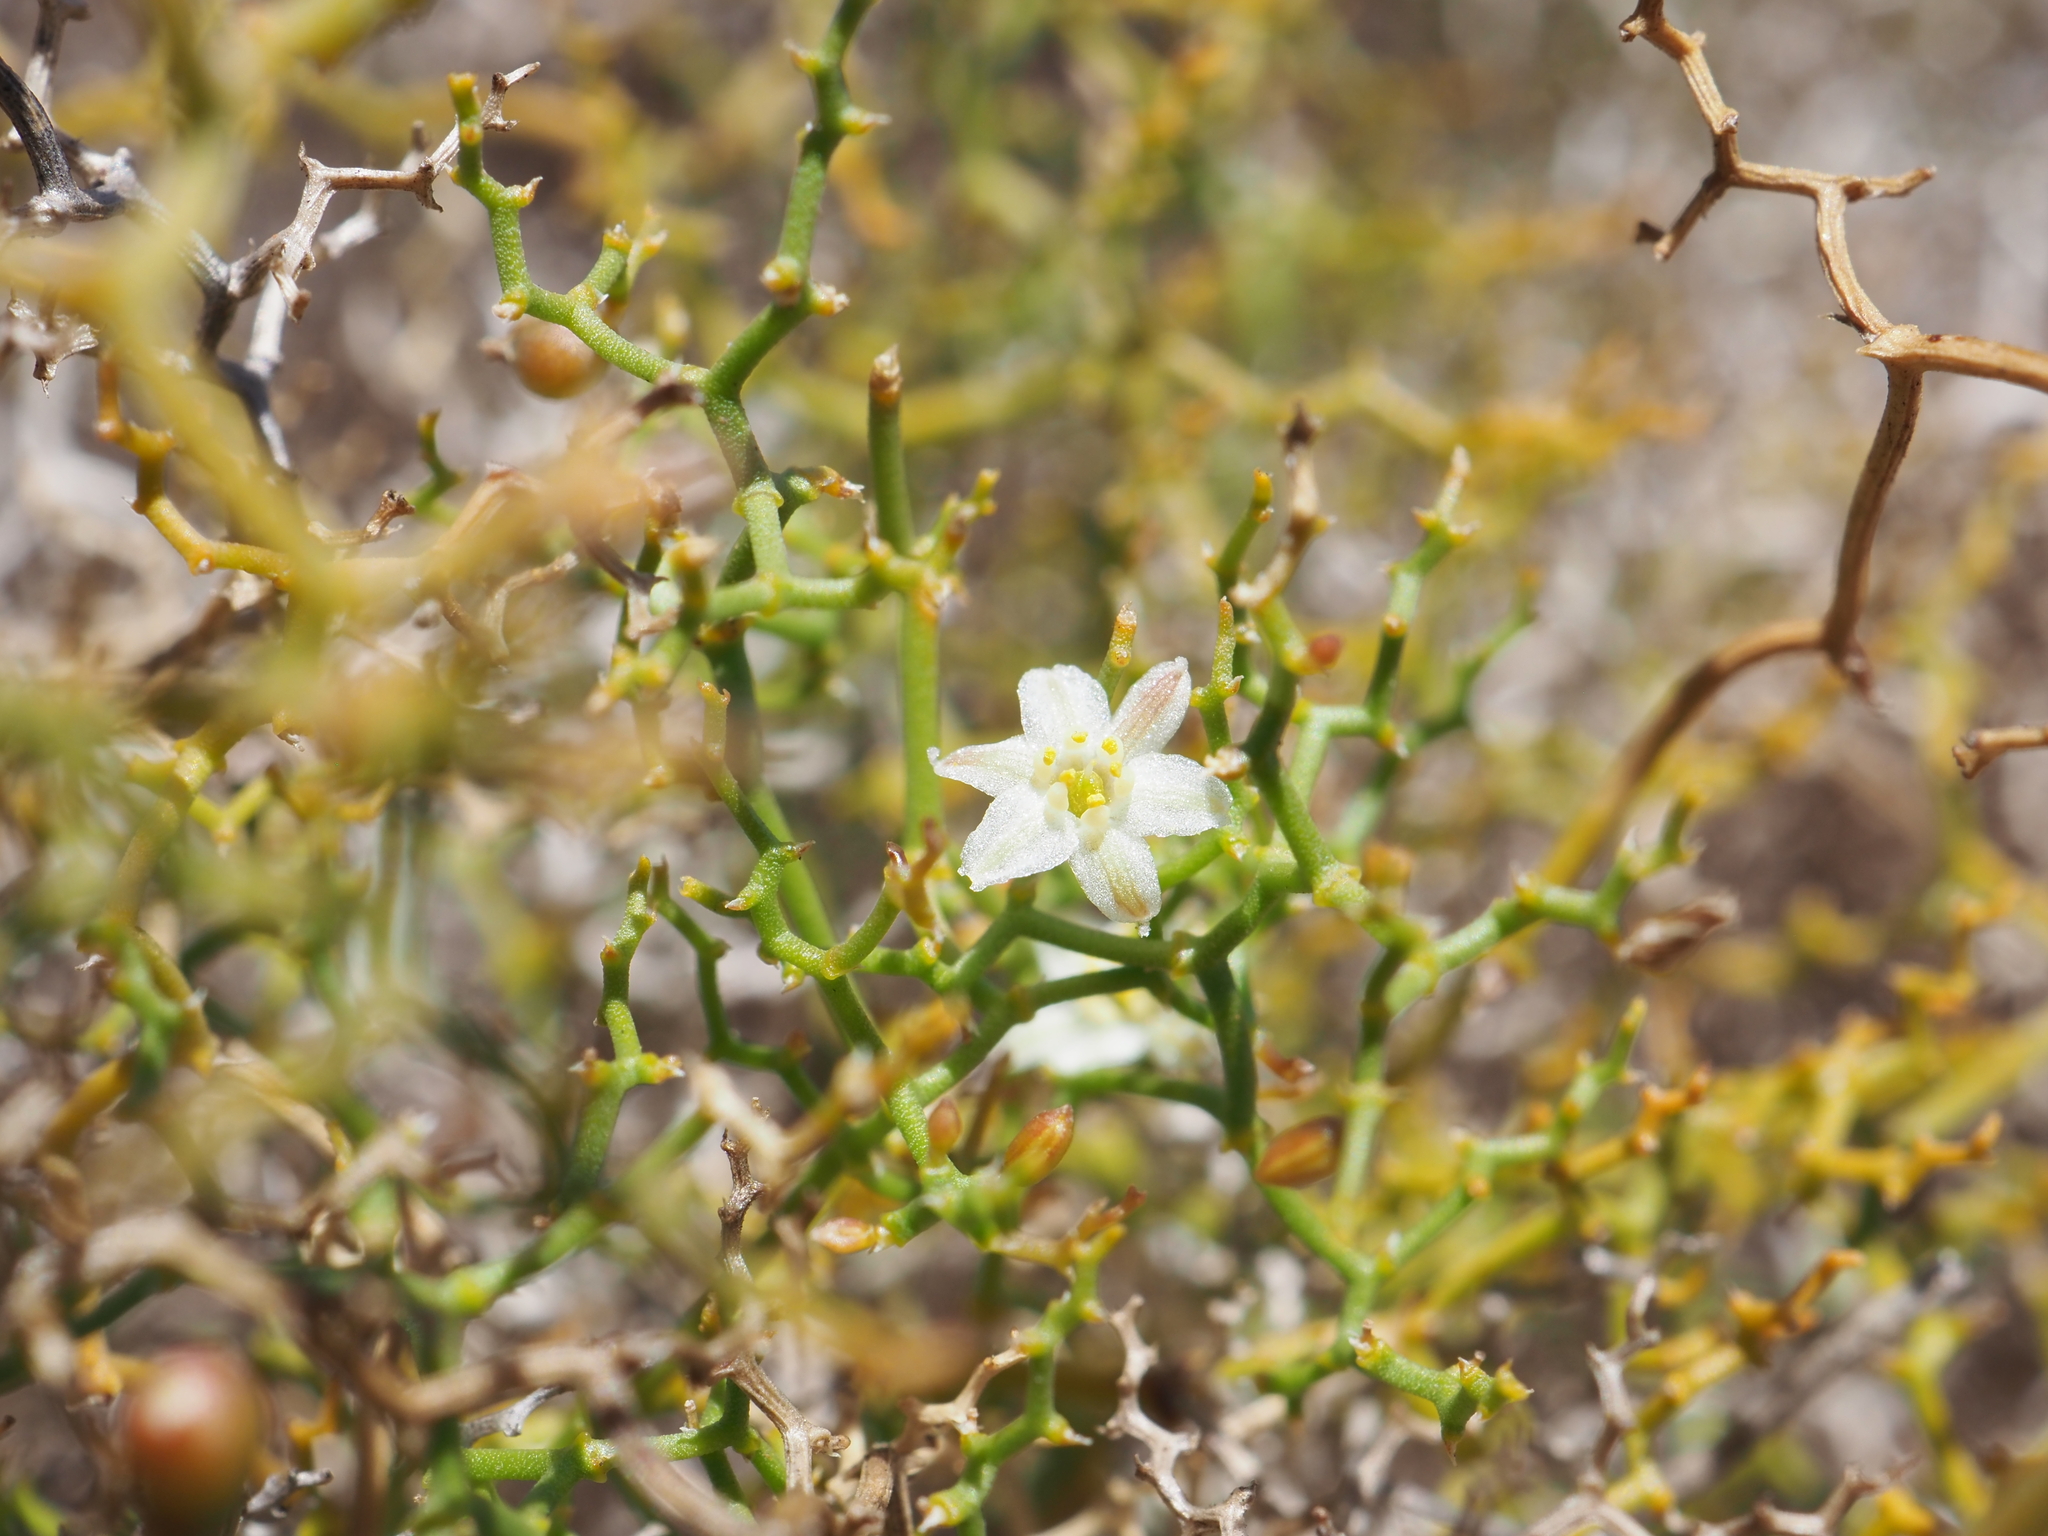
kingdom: Plantae
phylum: Tracheophyta
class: Liliopsida
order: Asparagales
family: Asphodelaceae
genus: Corynotheca
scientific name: Corynotheca flexuosissima
